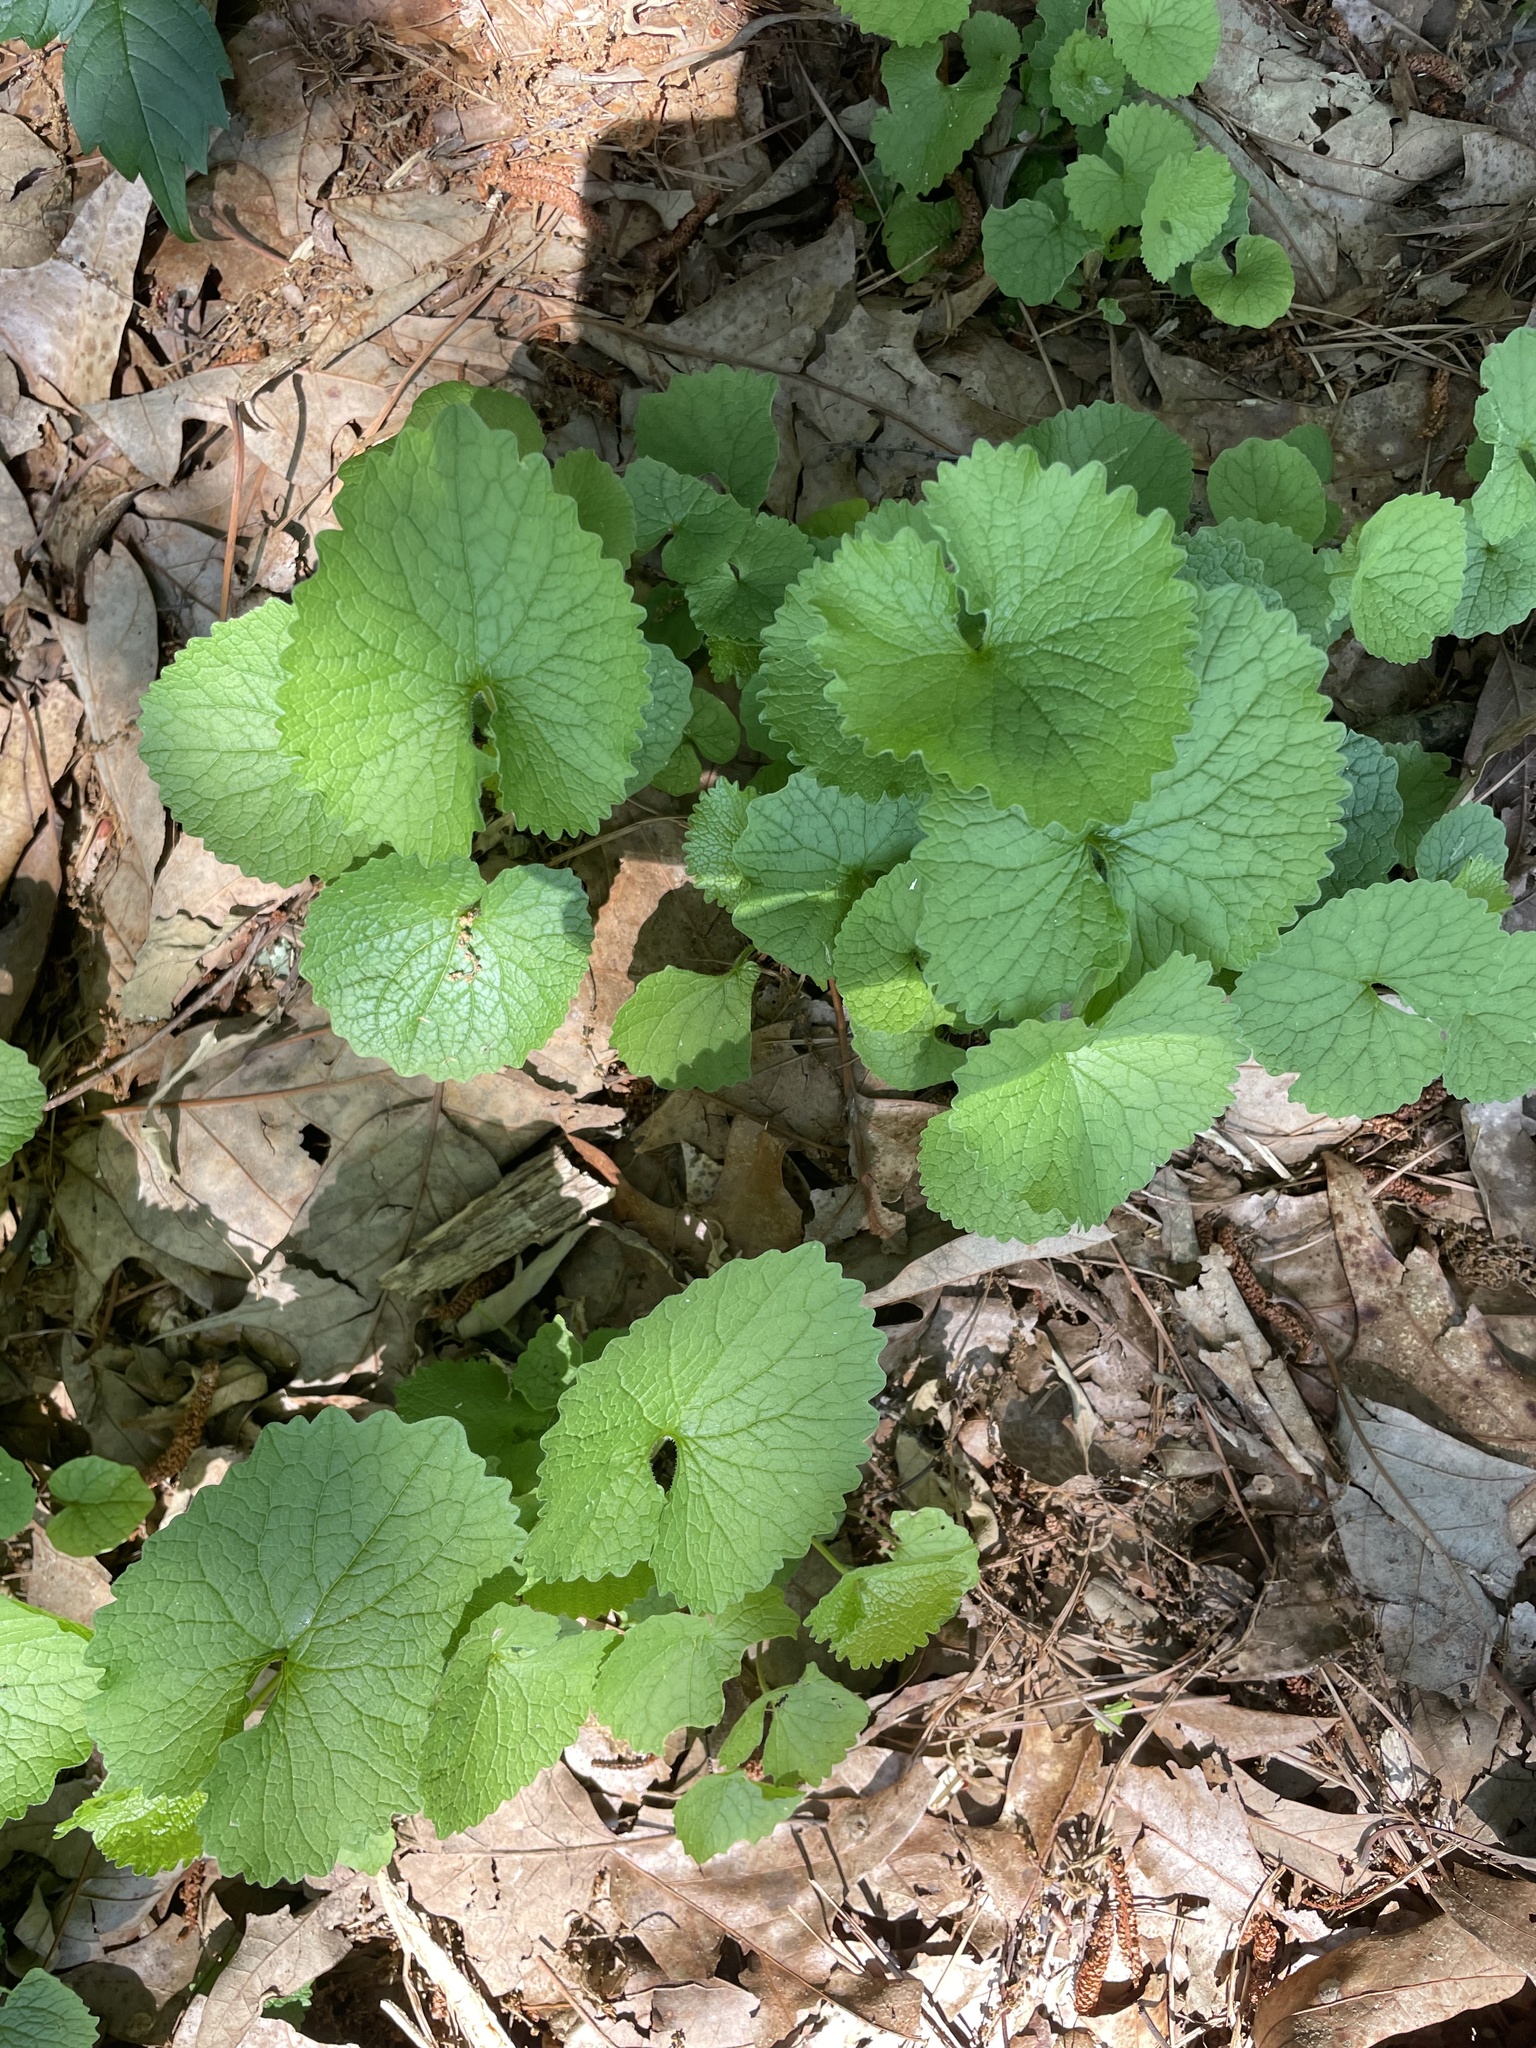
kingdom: Plantae
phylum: Tracheophyta
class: Magnoliopsida
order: Brassicales
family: Brassicaceae
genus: Alliaria
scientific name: Alliaria petiolata
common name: Garlic mustard
